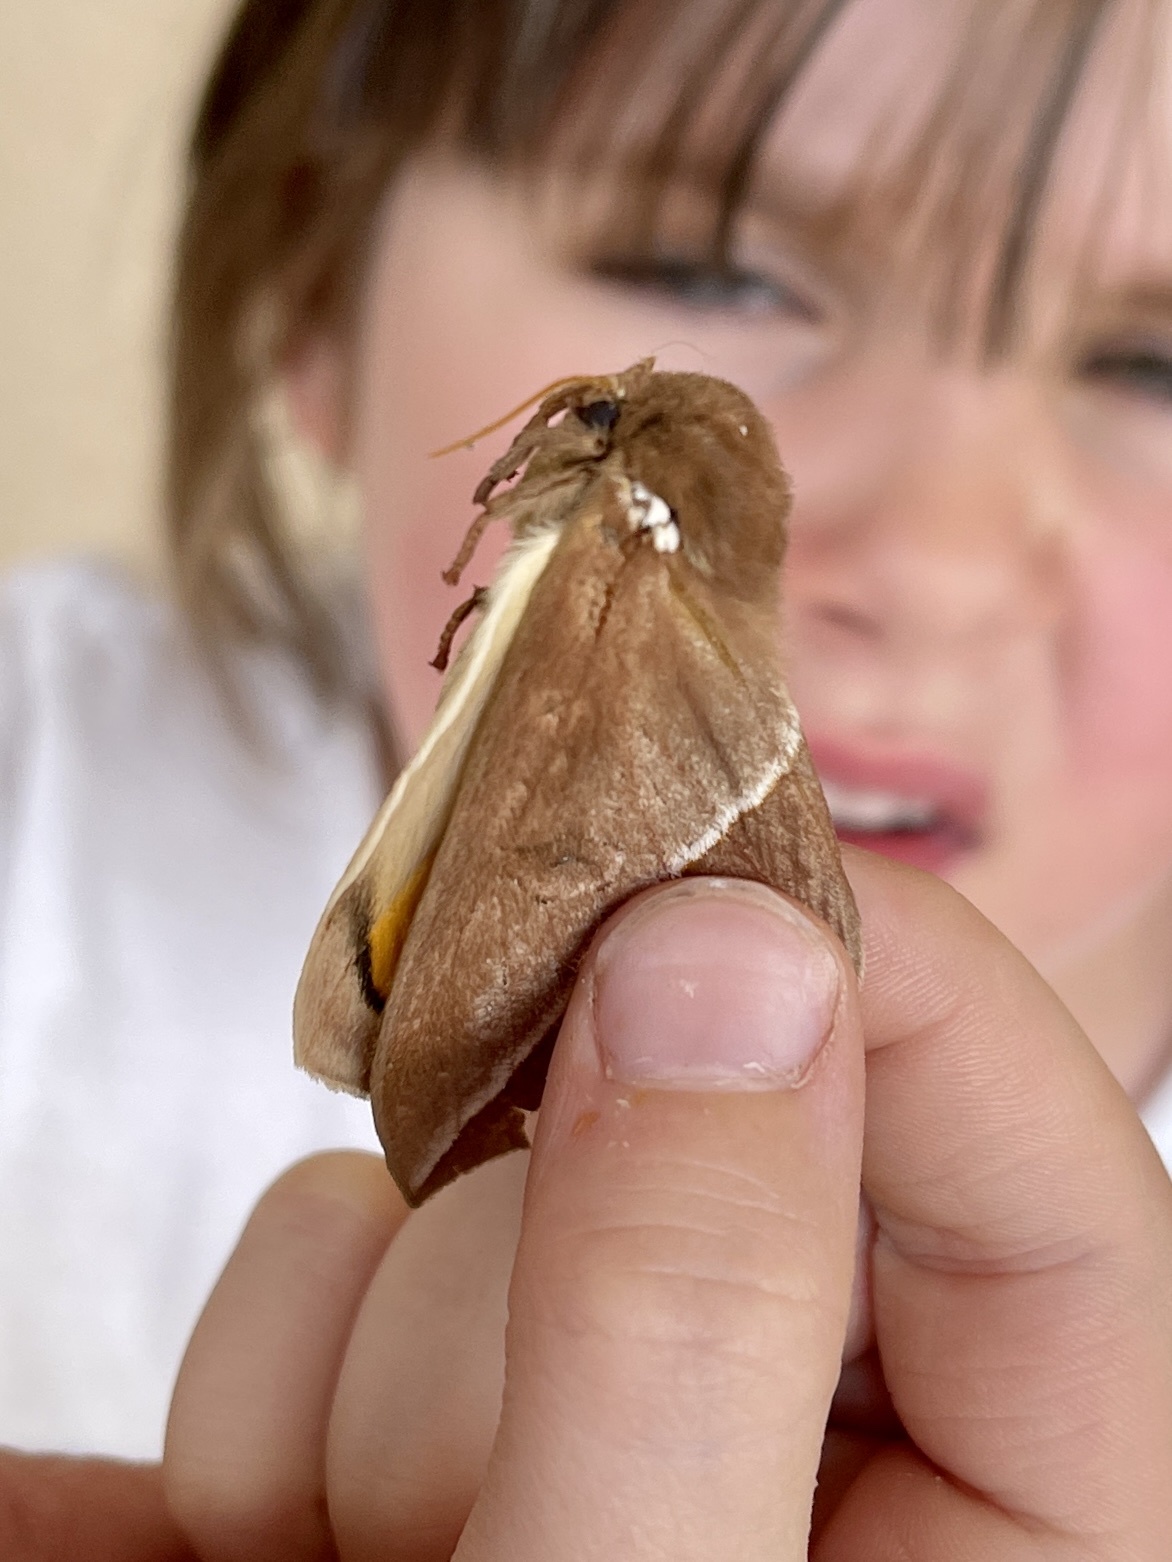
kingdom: Animalia
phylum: Arthropoda
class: Insecta
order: Lepidoptera
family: Saturniidae
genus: Automeris
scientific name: Automeris zephyria
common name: Zephyr eyed silkmoth
